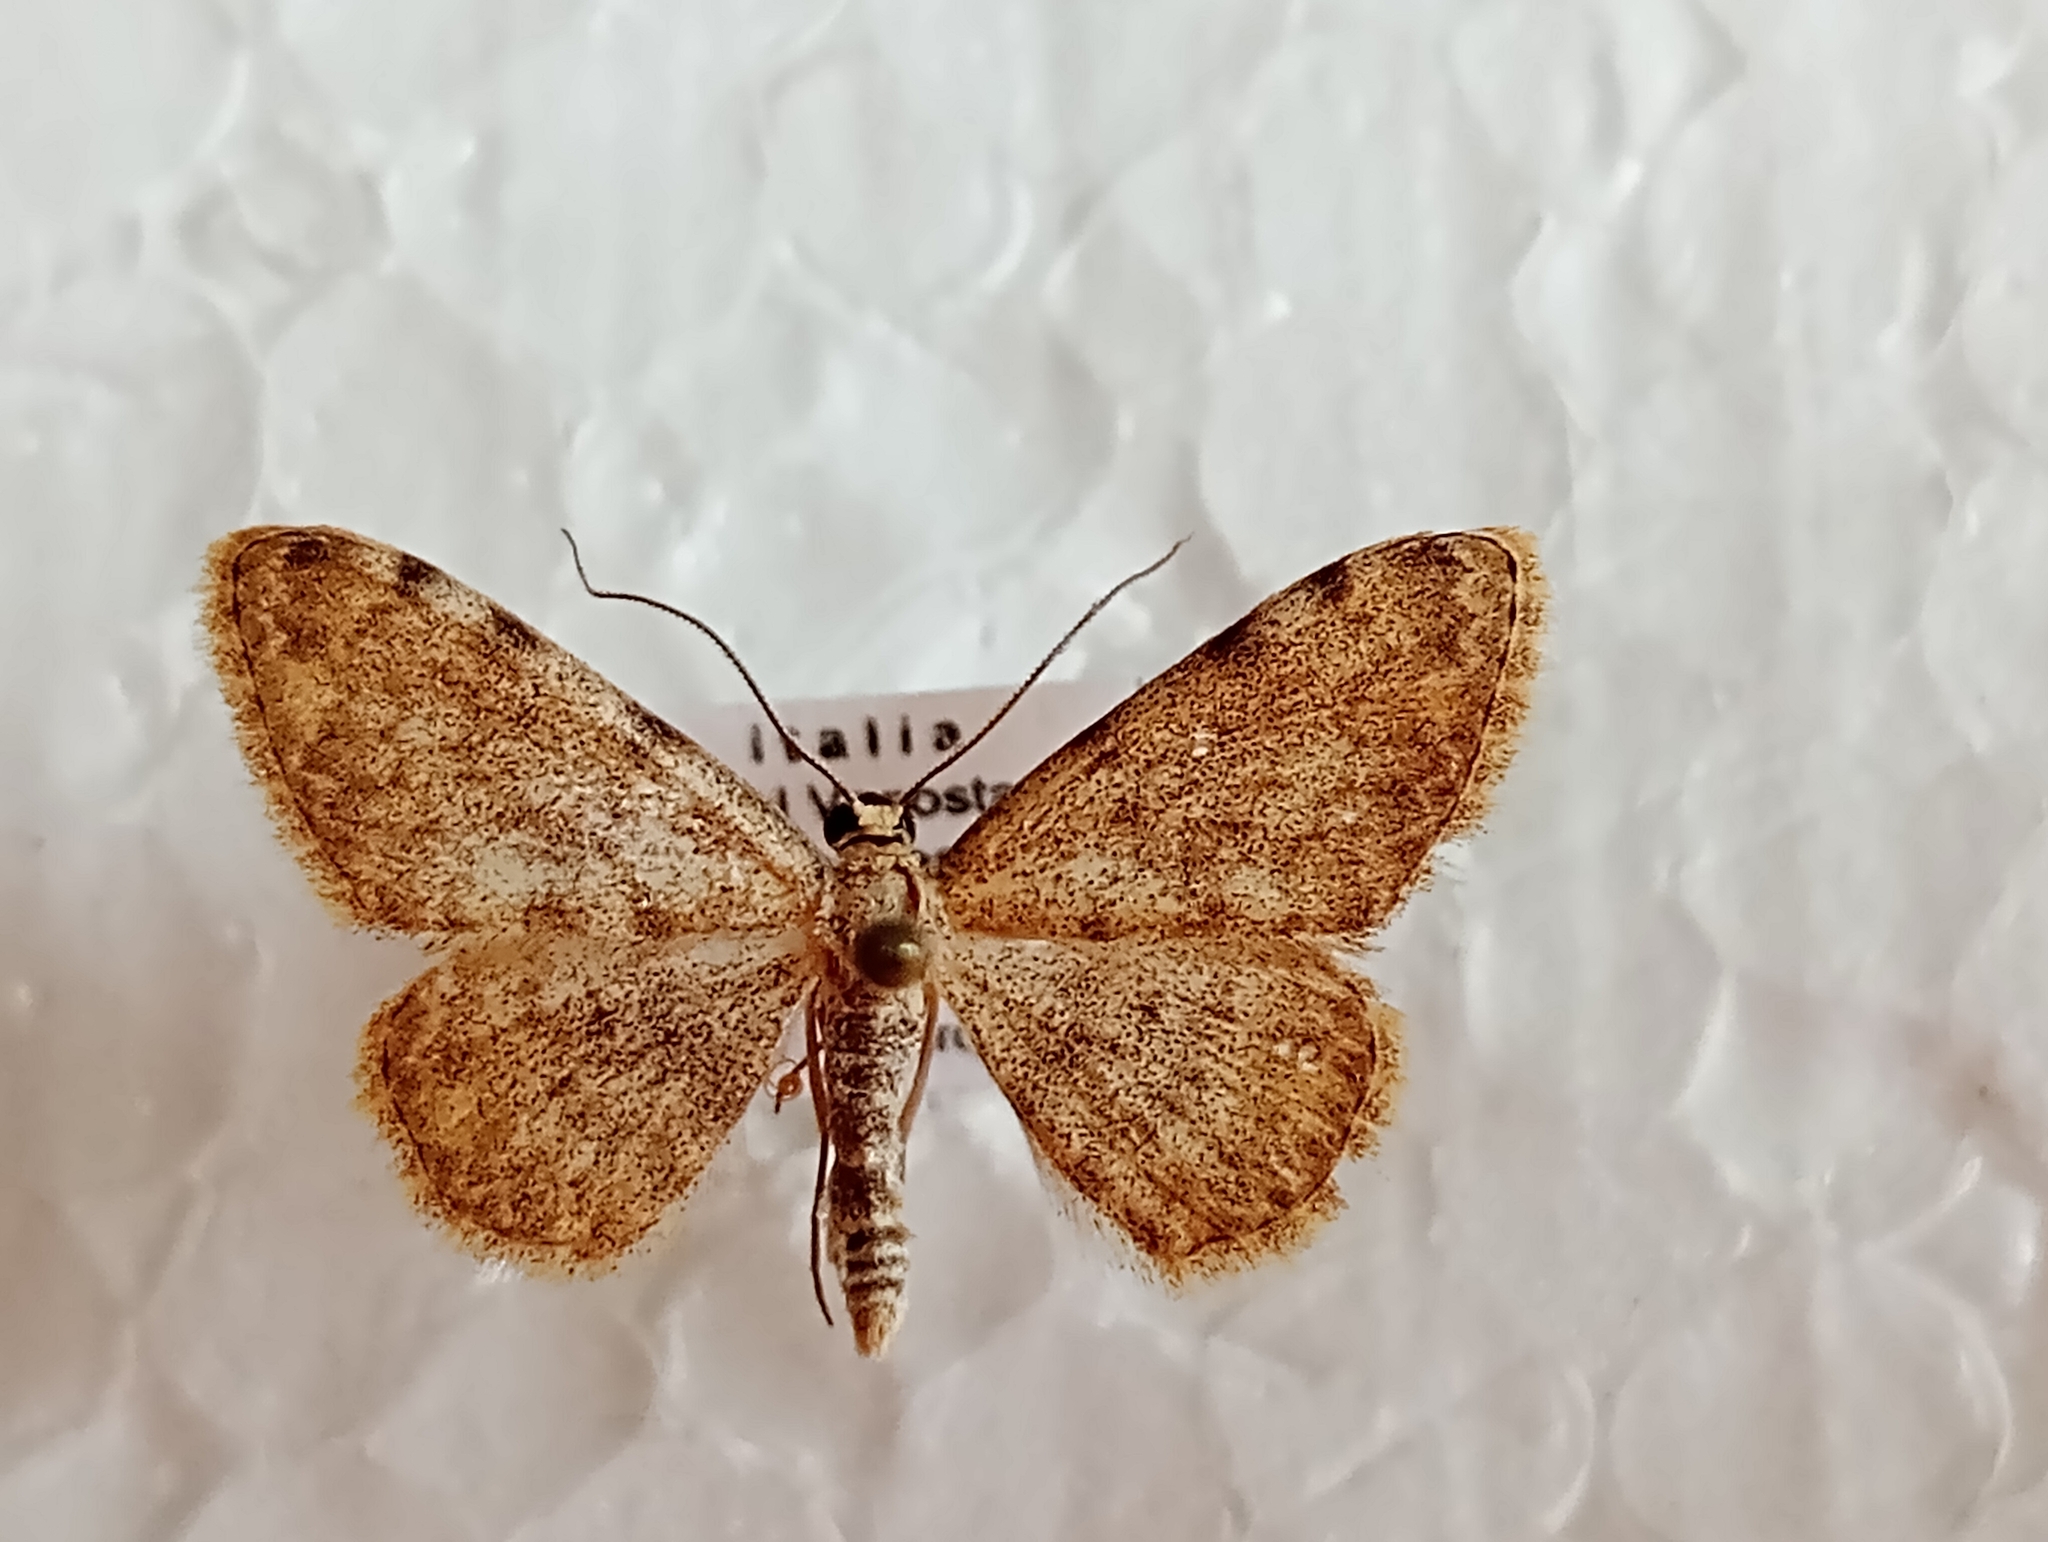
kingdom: Animalia
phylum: Arthropoda
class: Insecta
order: Lepidoptera
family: Geometridae
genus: Glossotrophia
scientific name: Glossotrophia confinaria
